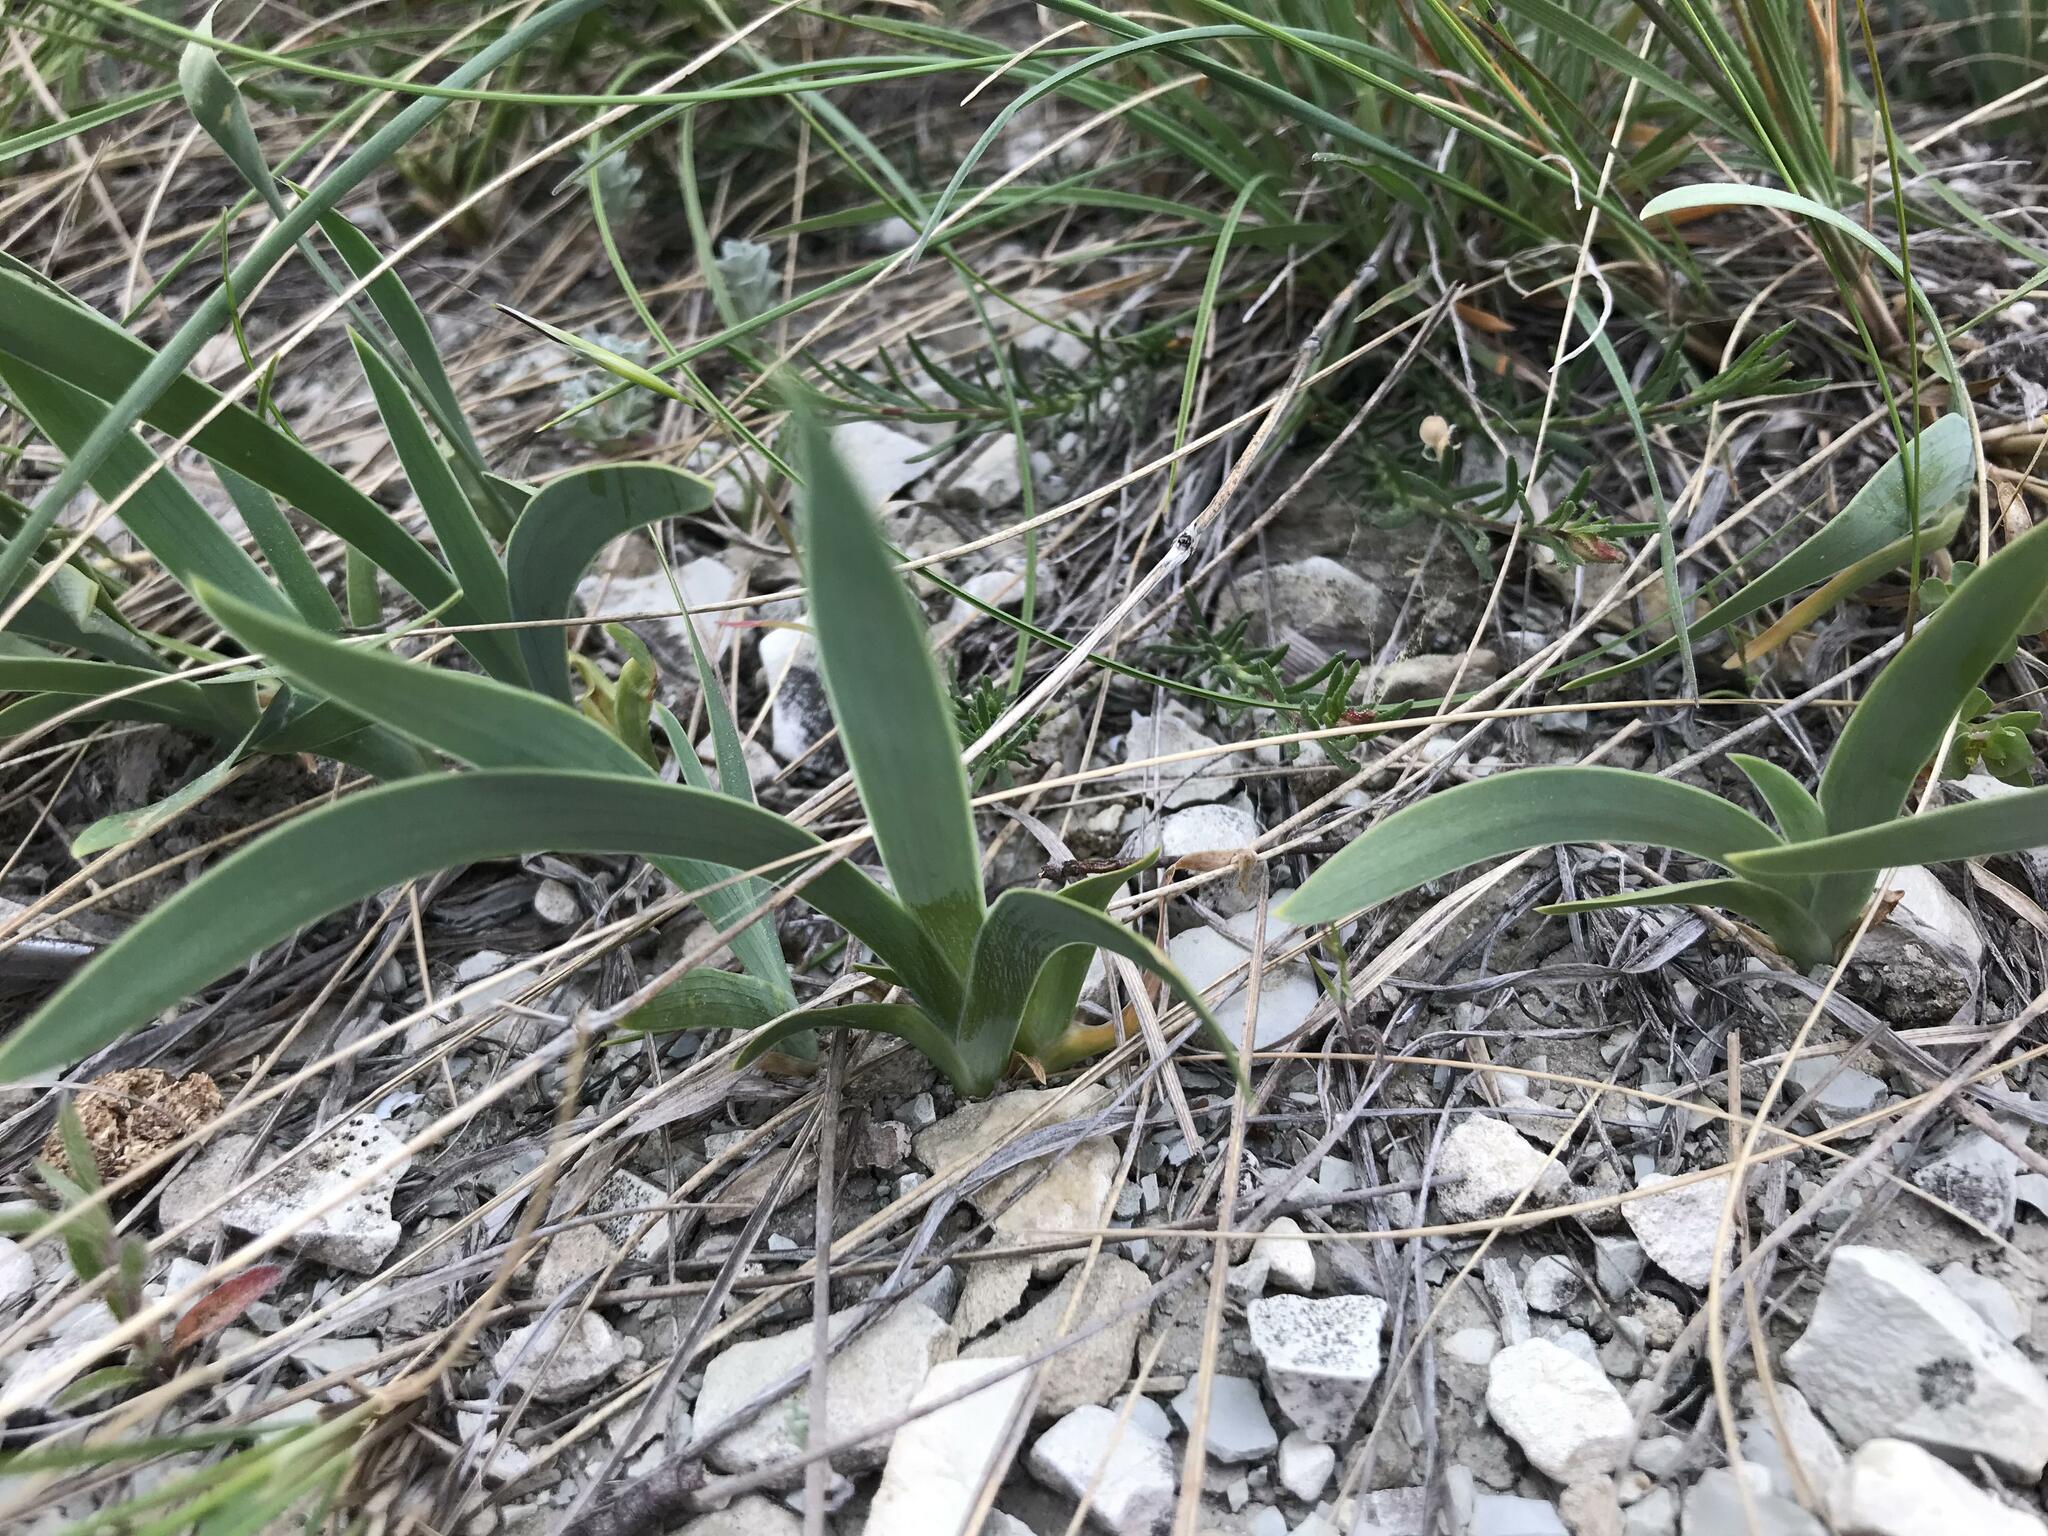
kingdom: Plantae
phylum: Tracheophyta
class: Liliopsida
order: Asparagales
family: Iridaceae
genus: Iris
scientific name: Iris pumila
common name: Dwarf iris
